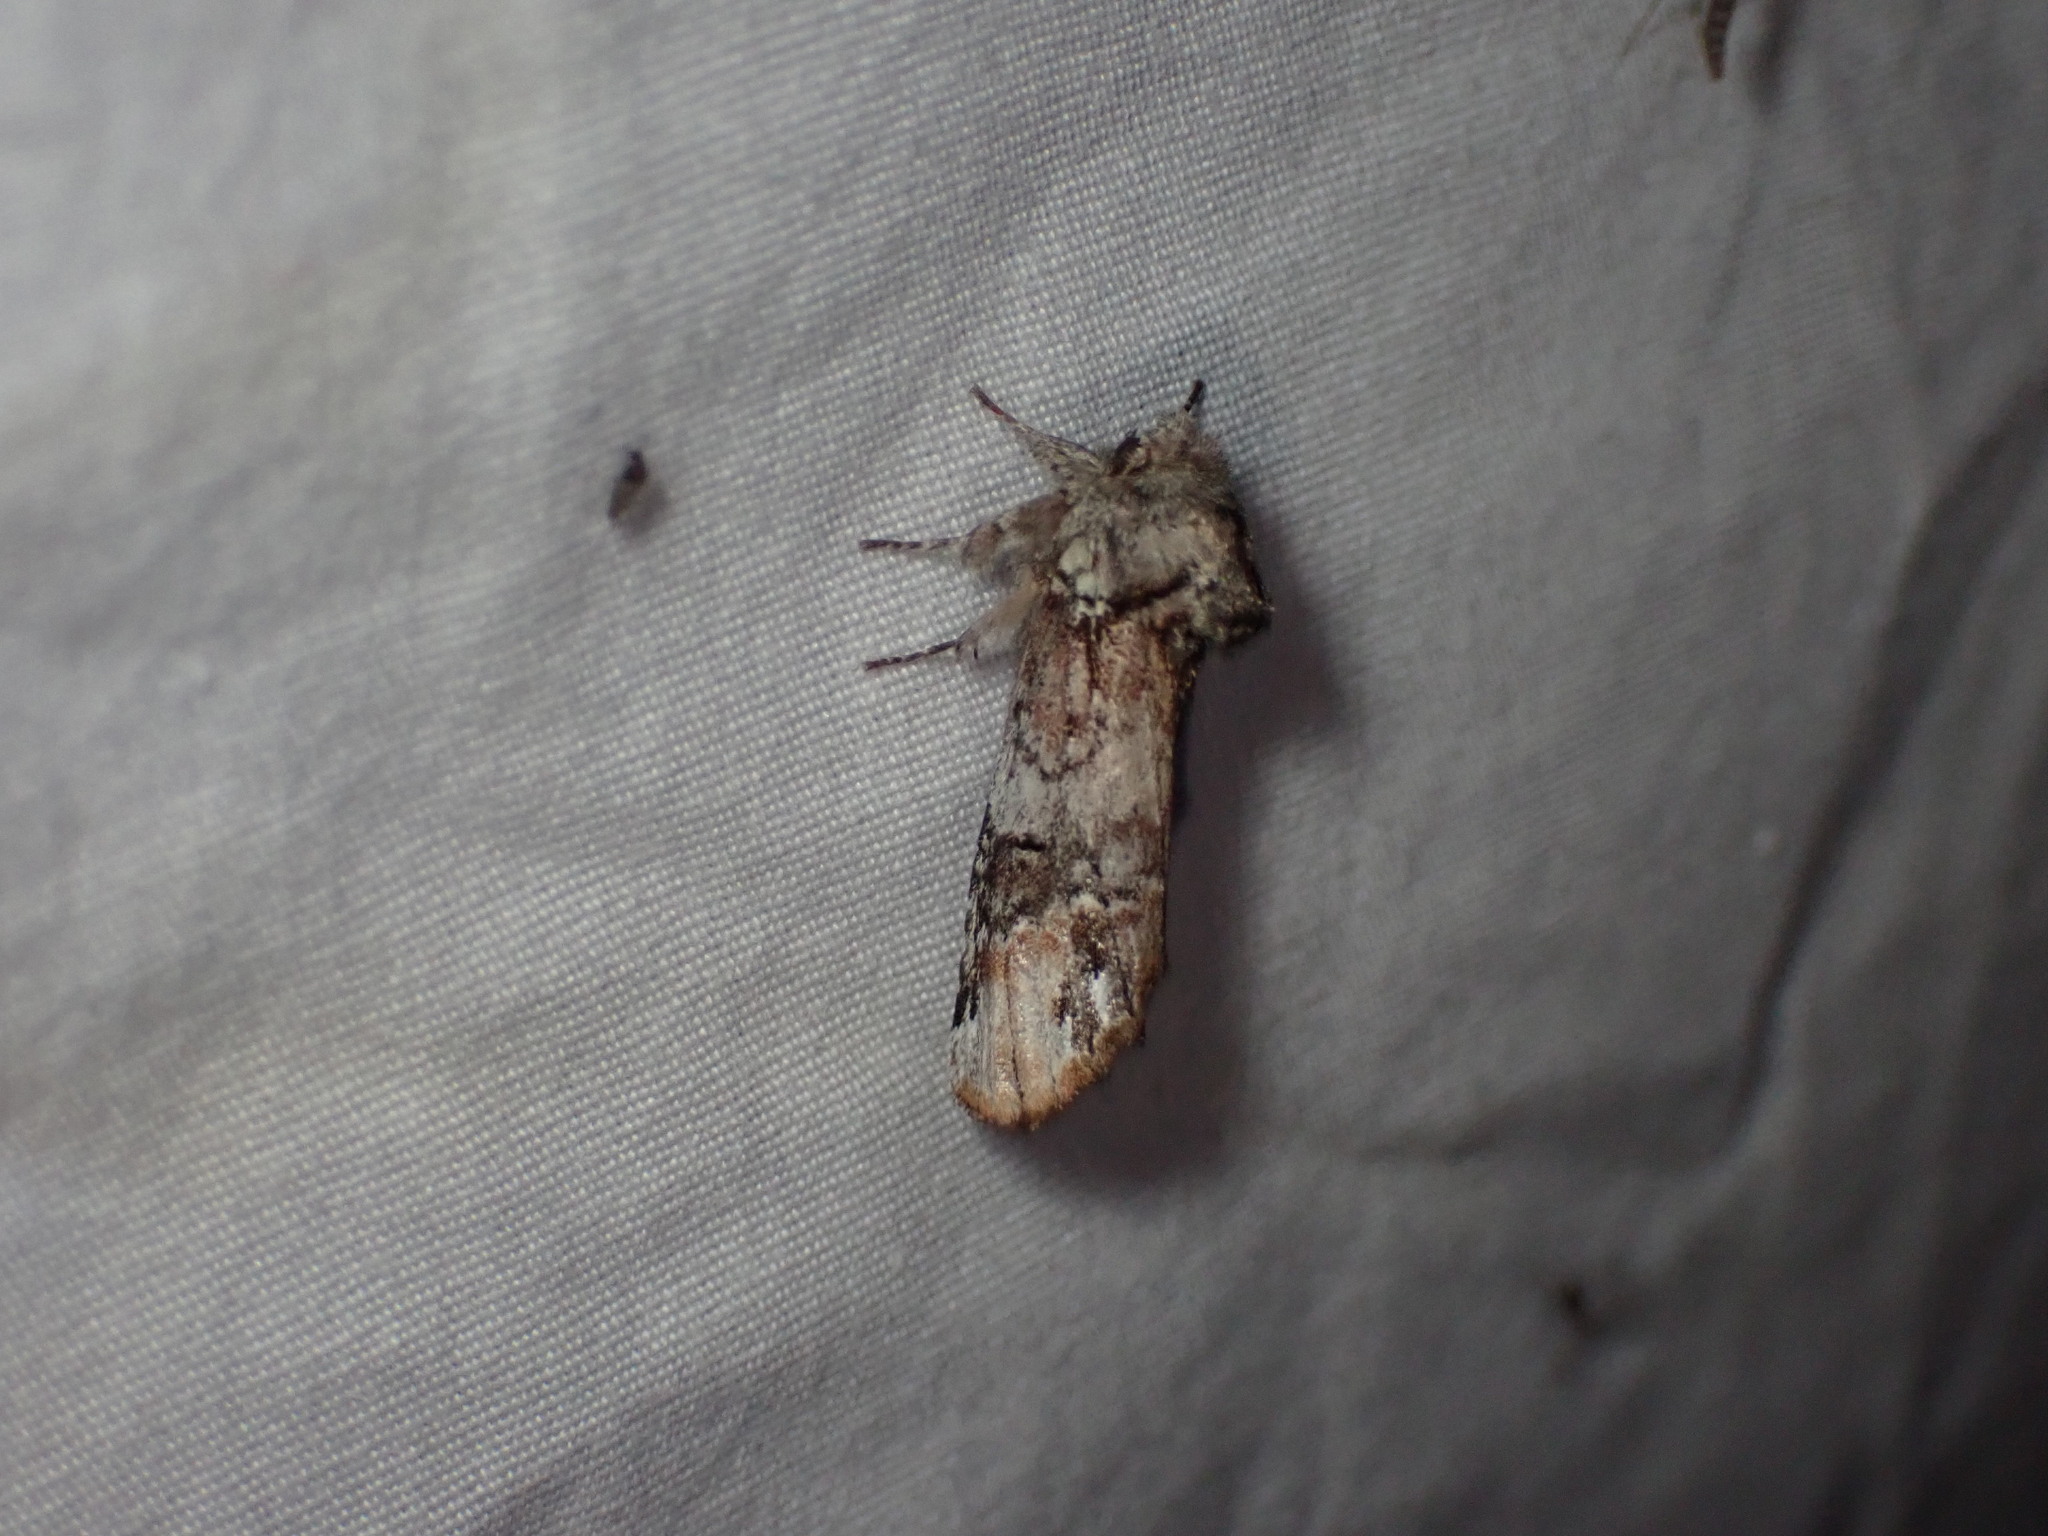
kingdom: Animalia
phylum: Arthropoda
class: Insecta
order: Lepidoptera
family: Notodontidae
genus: Schizura
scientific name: Schizura
